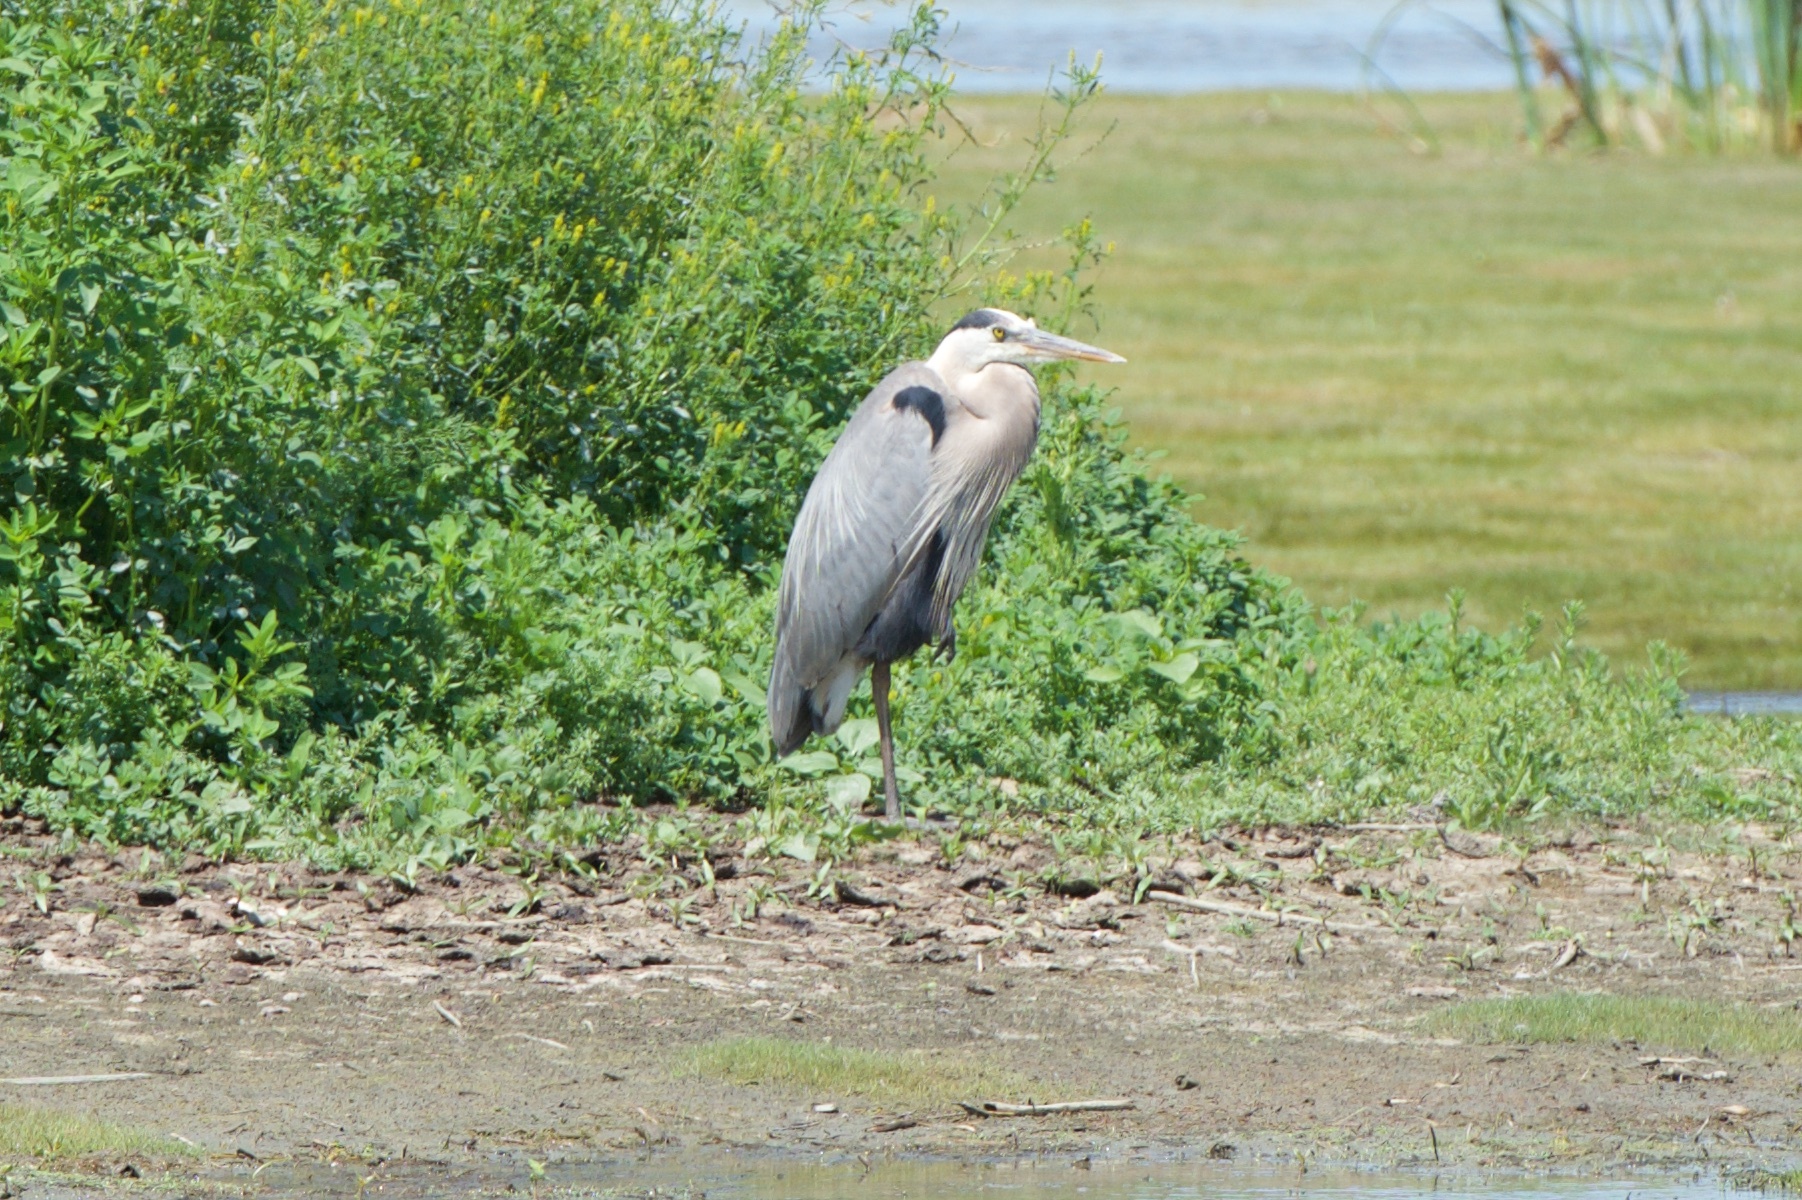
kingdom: Animalia
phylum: Chordata
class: Aves
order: Pelecaniformes
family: Ardeidae
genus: Ardea
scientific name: Ardea herodias
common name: Great blue heron
